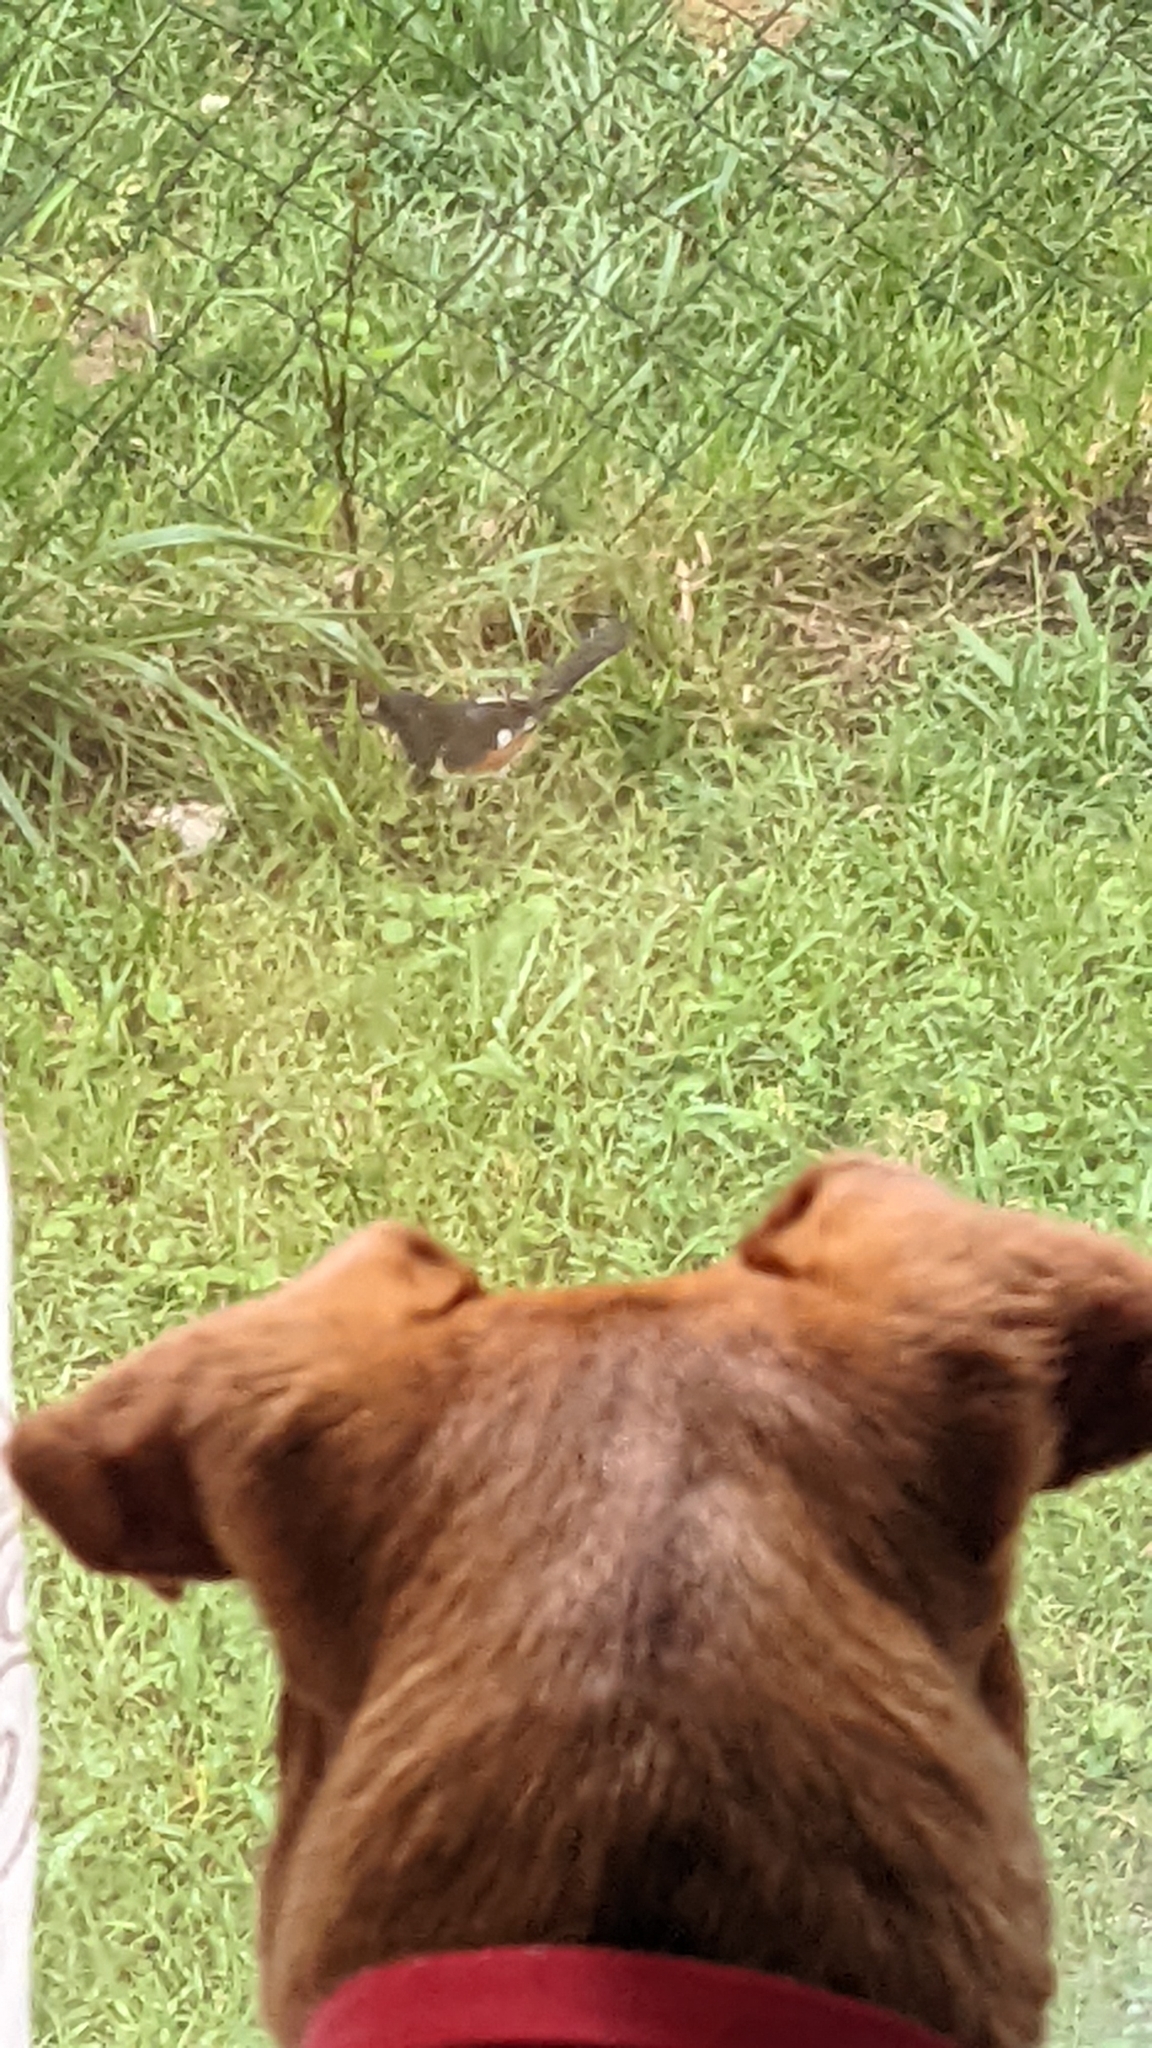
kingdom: Animalia
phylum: Chordata
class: Aves
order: Passeriformes
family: Passerellidae
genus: Pipilo
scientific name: Pipilo erythrophthalmus
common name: Eastern towhee
